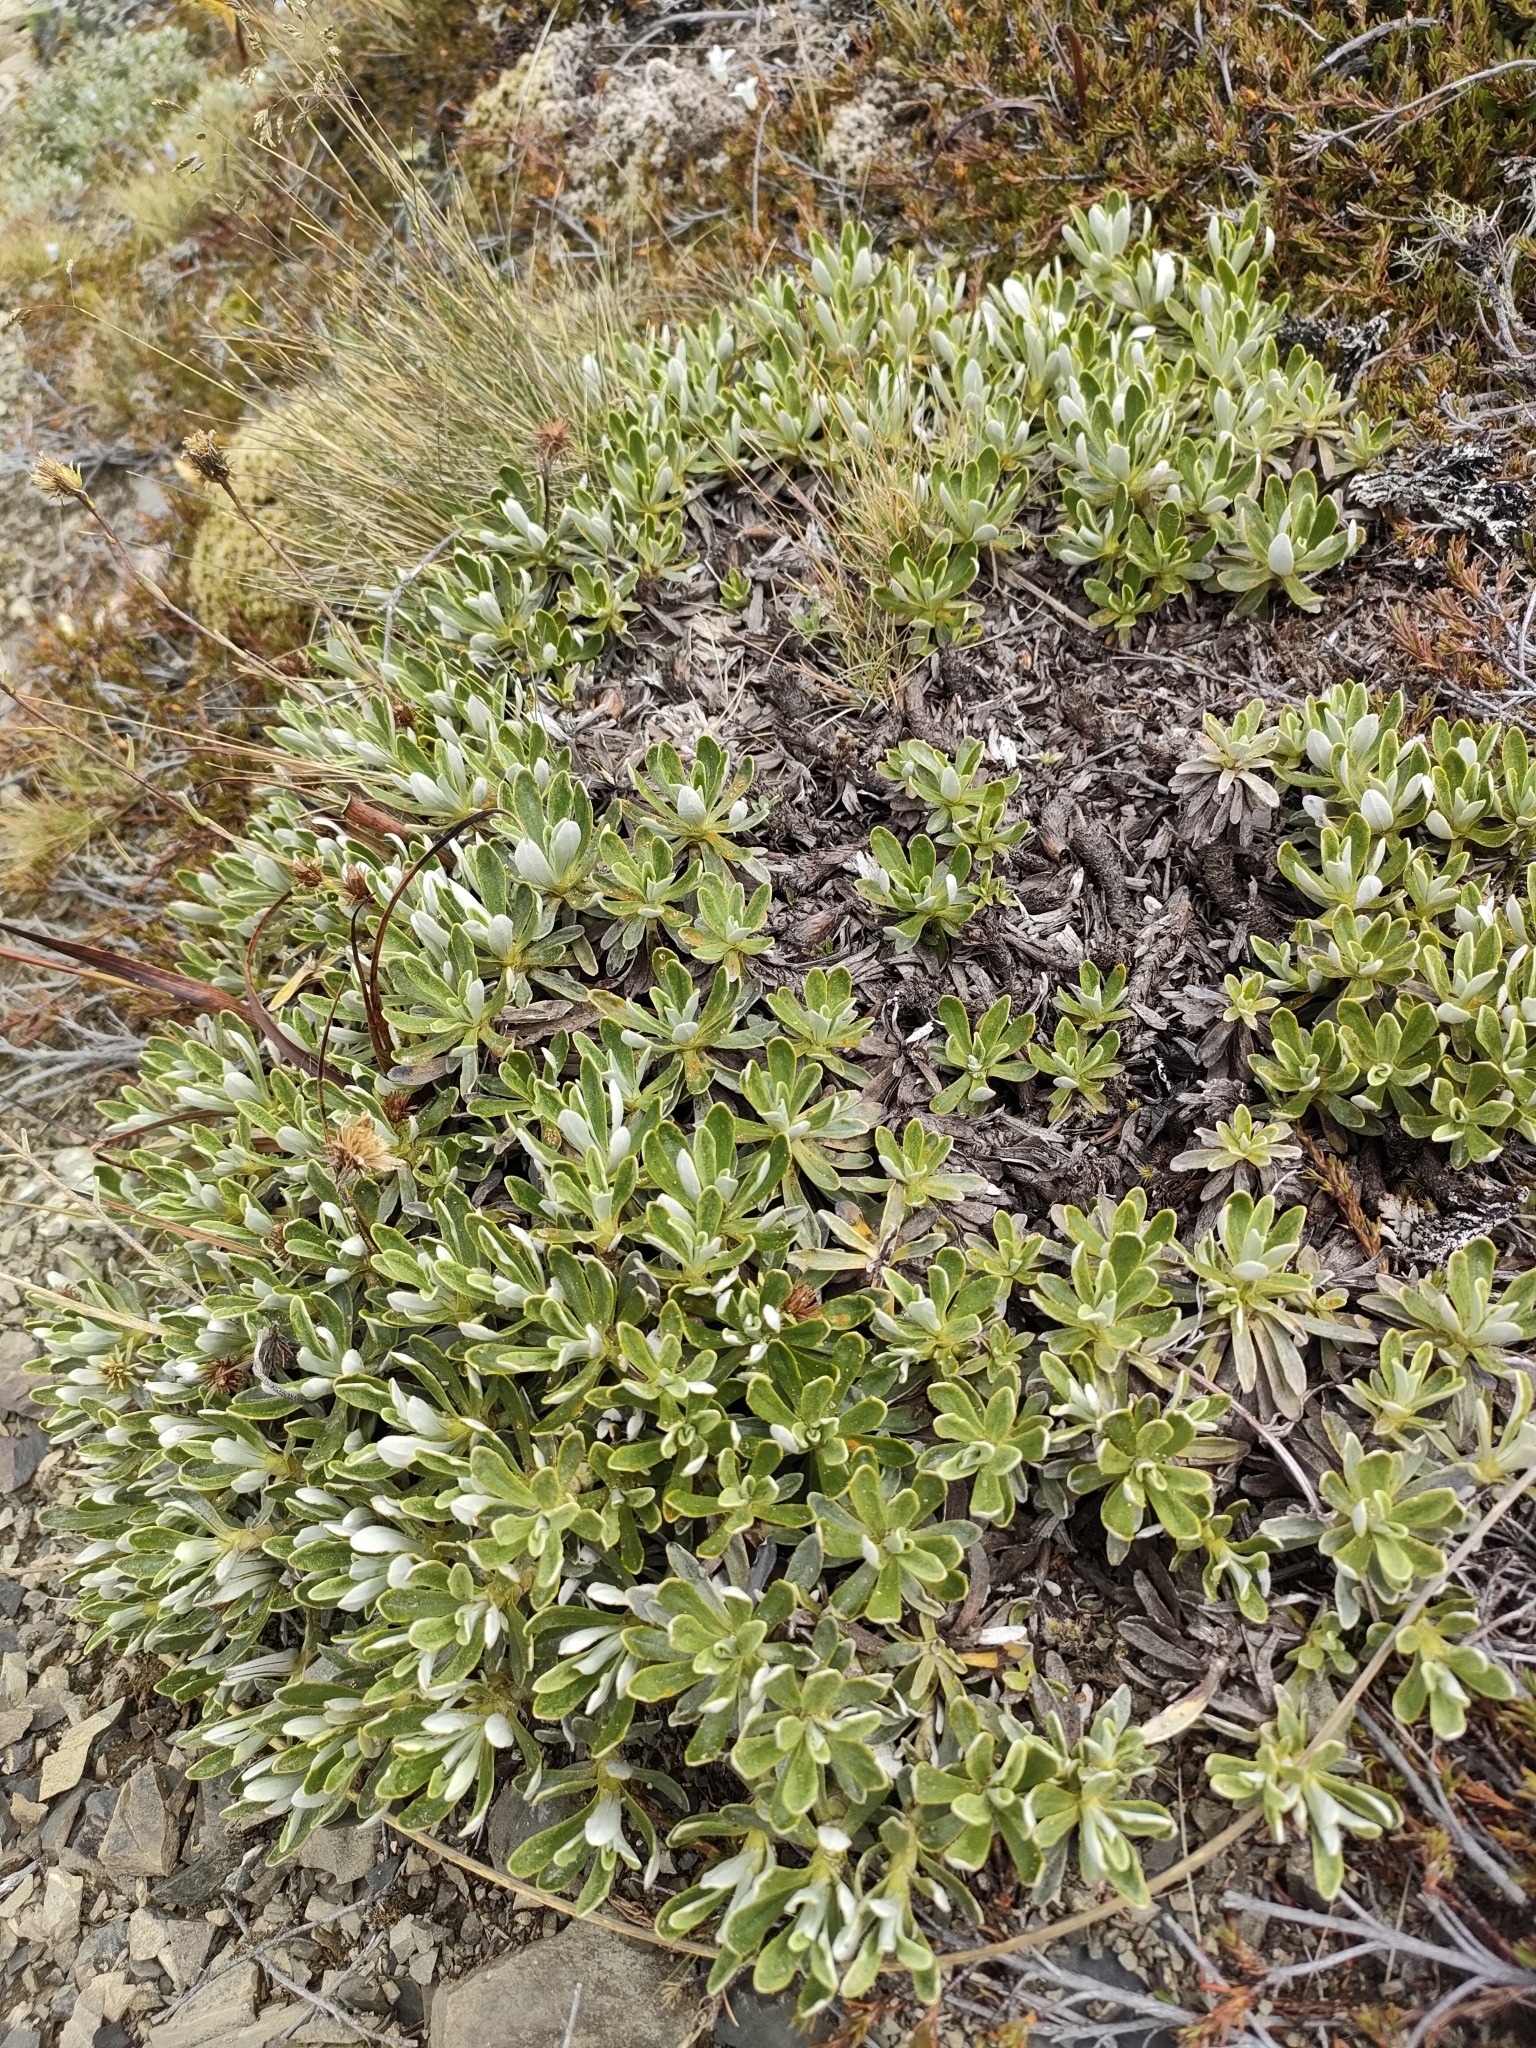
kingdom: Plantae
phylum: Tracheophyta
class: Magnoliopsida
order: Asterales
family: Asteraceae
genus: Celmisia
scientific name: Celmisia angustifolia
